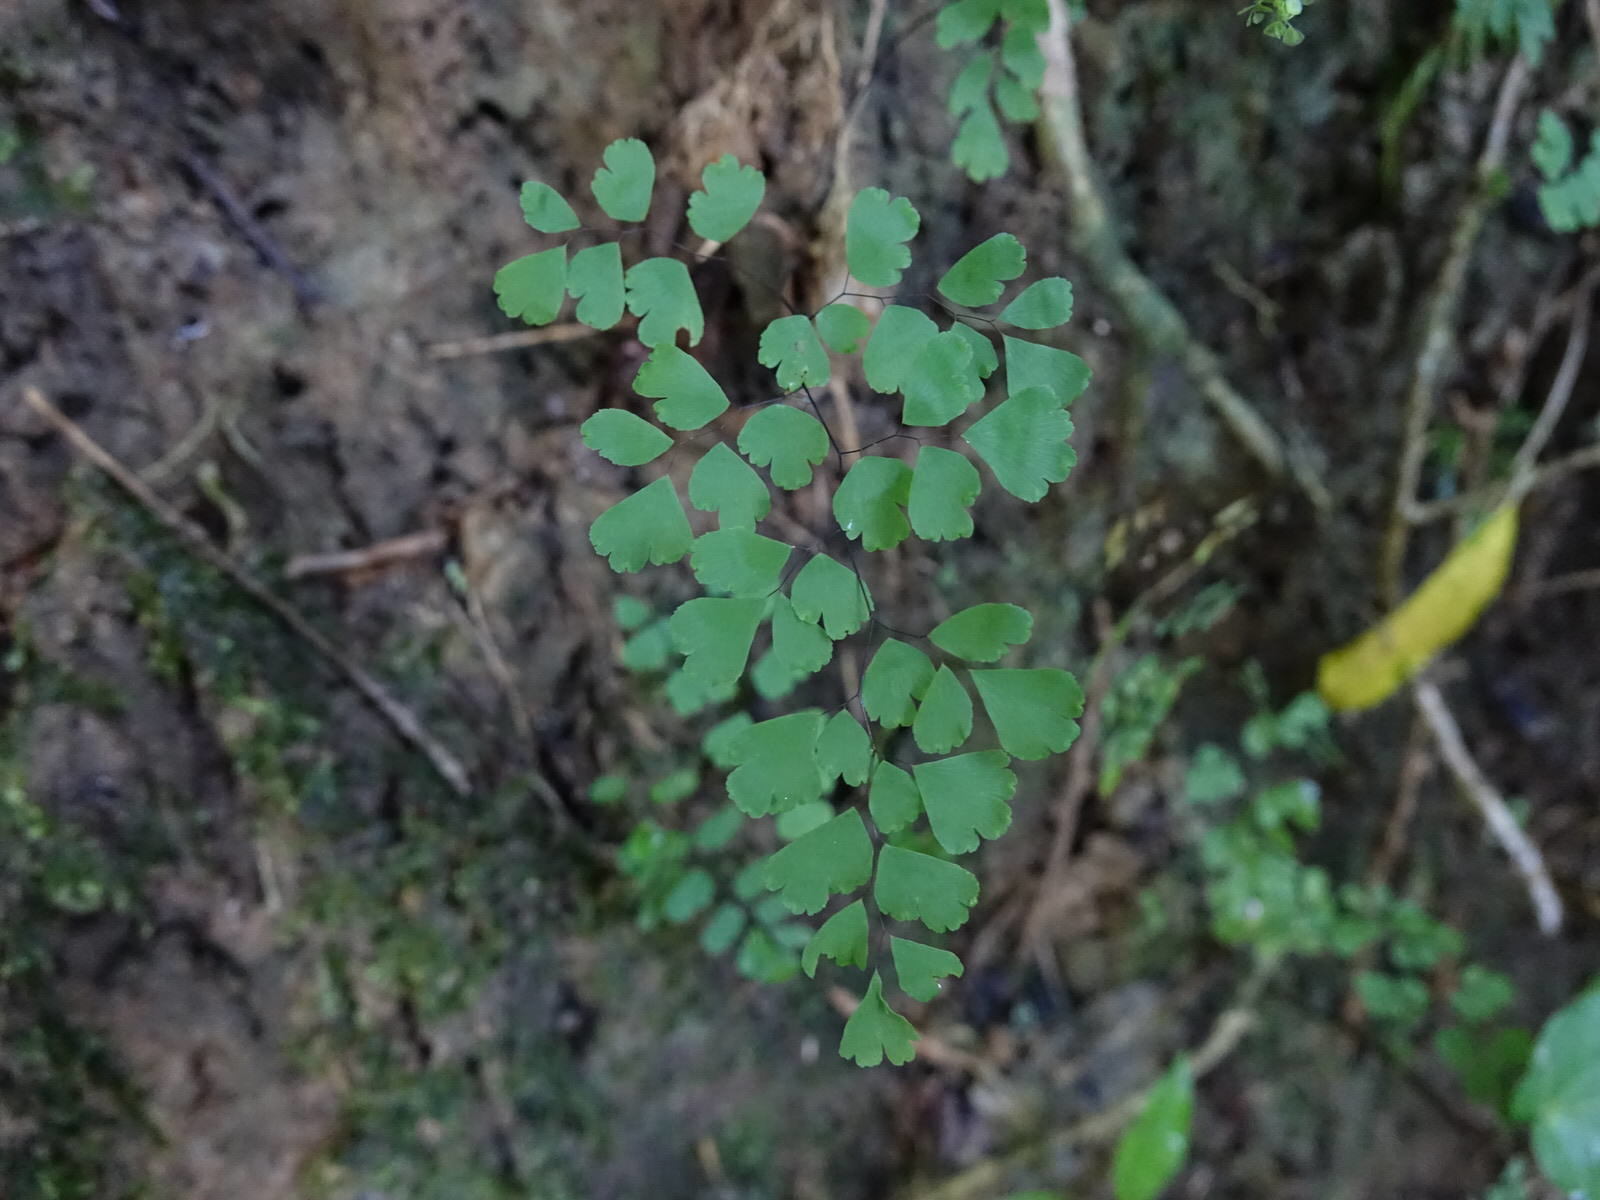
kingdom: Plantae
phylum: Tracheophyta
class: Polypodiopsida
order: Polypodiales
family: Pteridaceae
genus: Adiantum
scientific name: Adiantum raddianum
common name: Delta maidenhair fern
